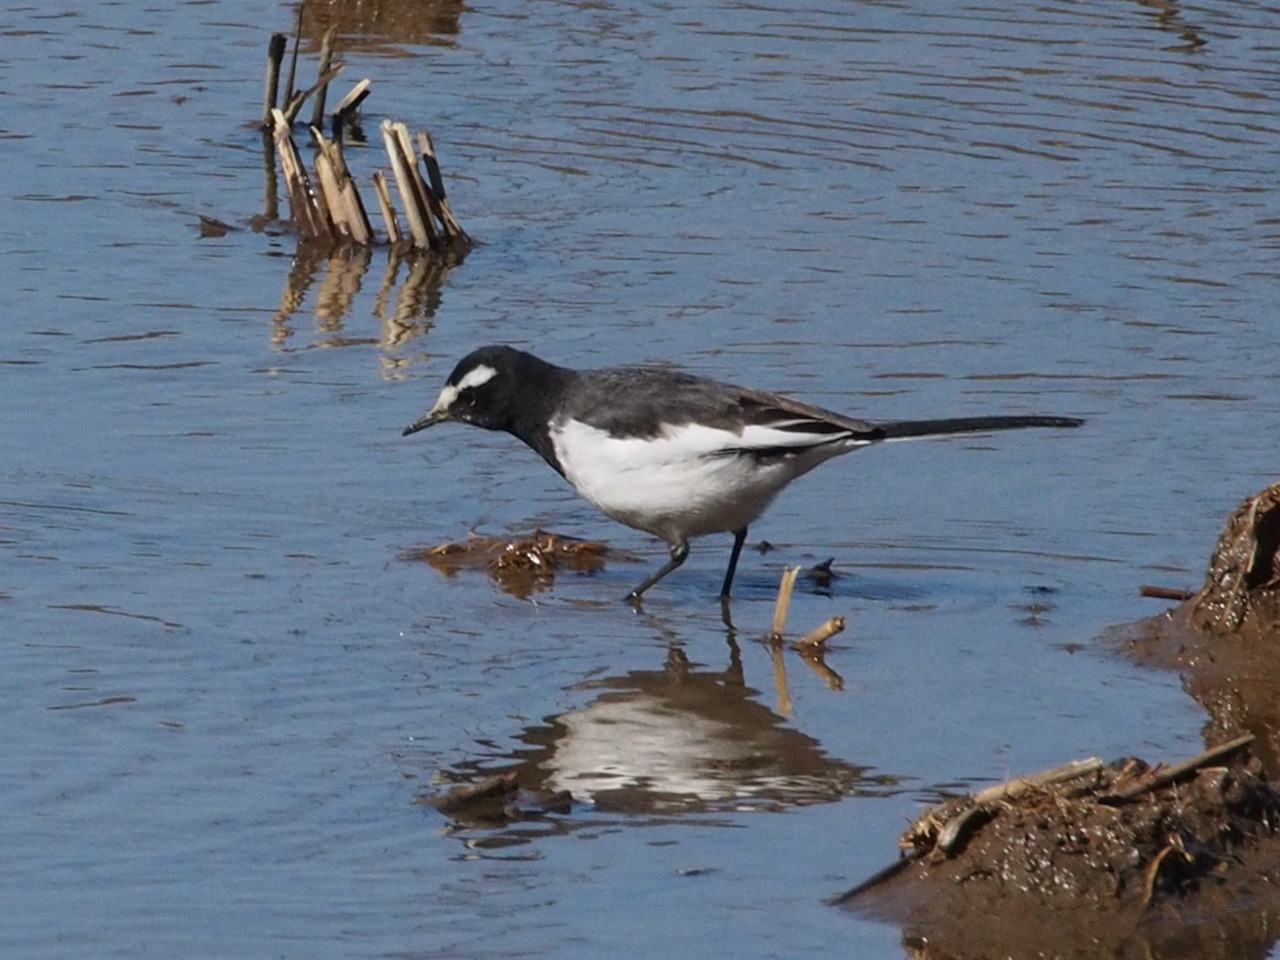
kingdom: Animalia
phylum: Chordata
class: Aves
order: Passeriformes
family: Motacillidae
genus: Motacilla
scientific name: Motacilla grandis
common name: Japanese wagtail
